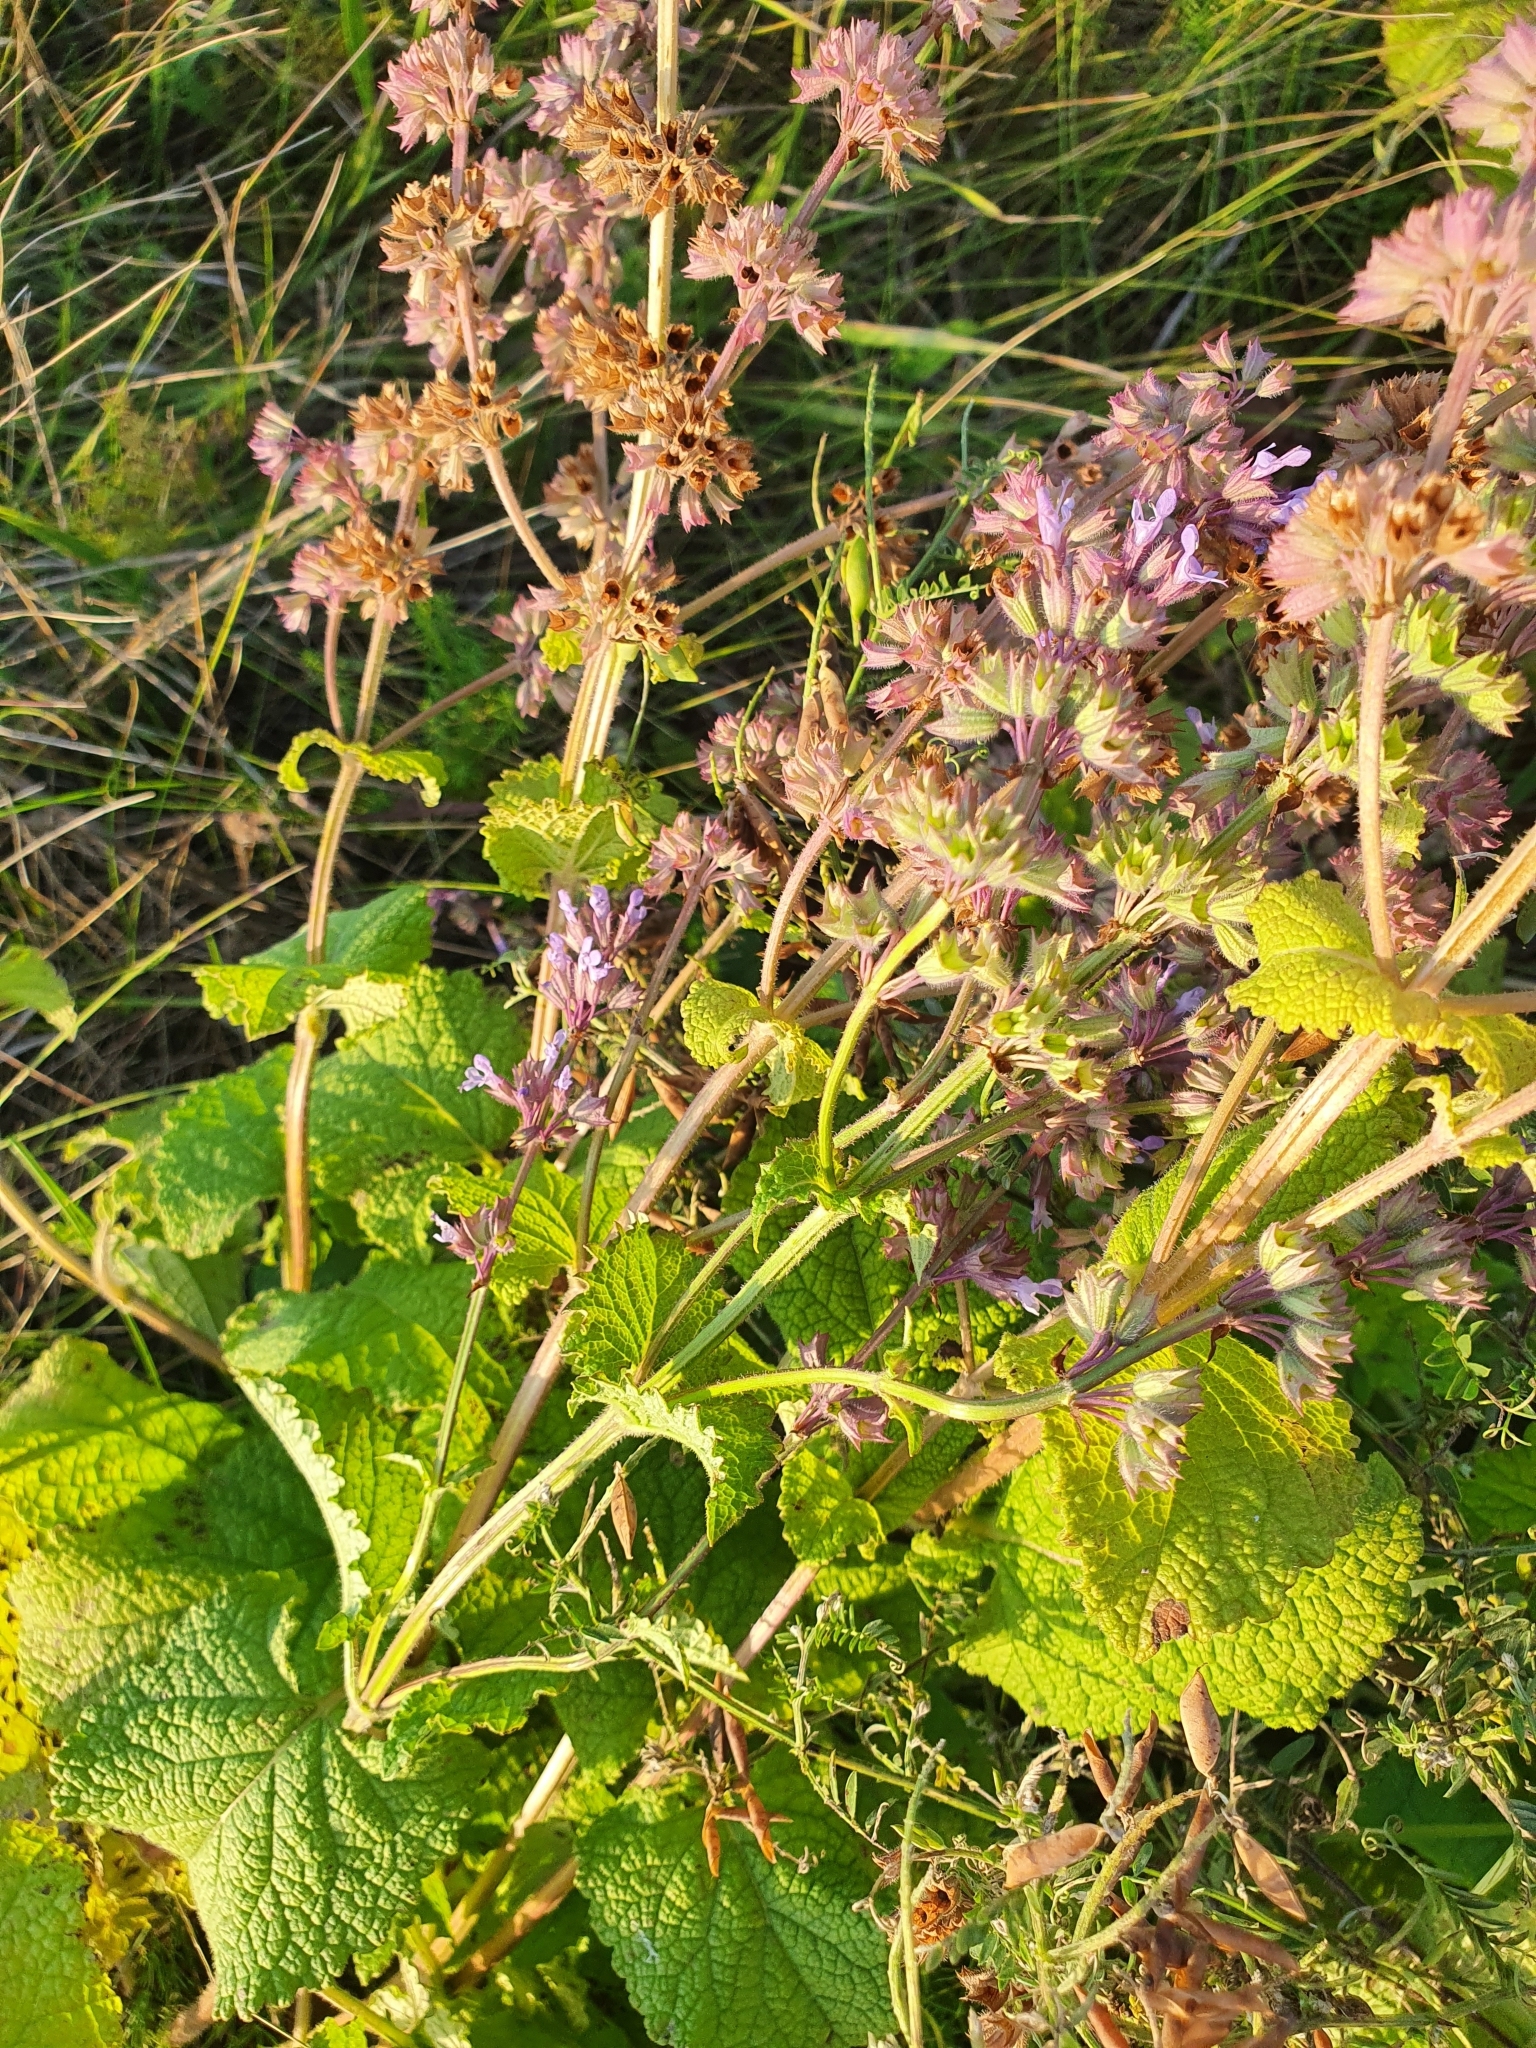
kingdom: Plantae
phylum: Tracheophyta
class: Magnoliopsida
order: Lamiales
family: Lamiaceae
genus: Salvia
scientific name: Salvia verticillata
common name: Whorled clary
